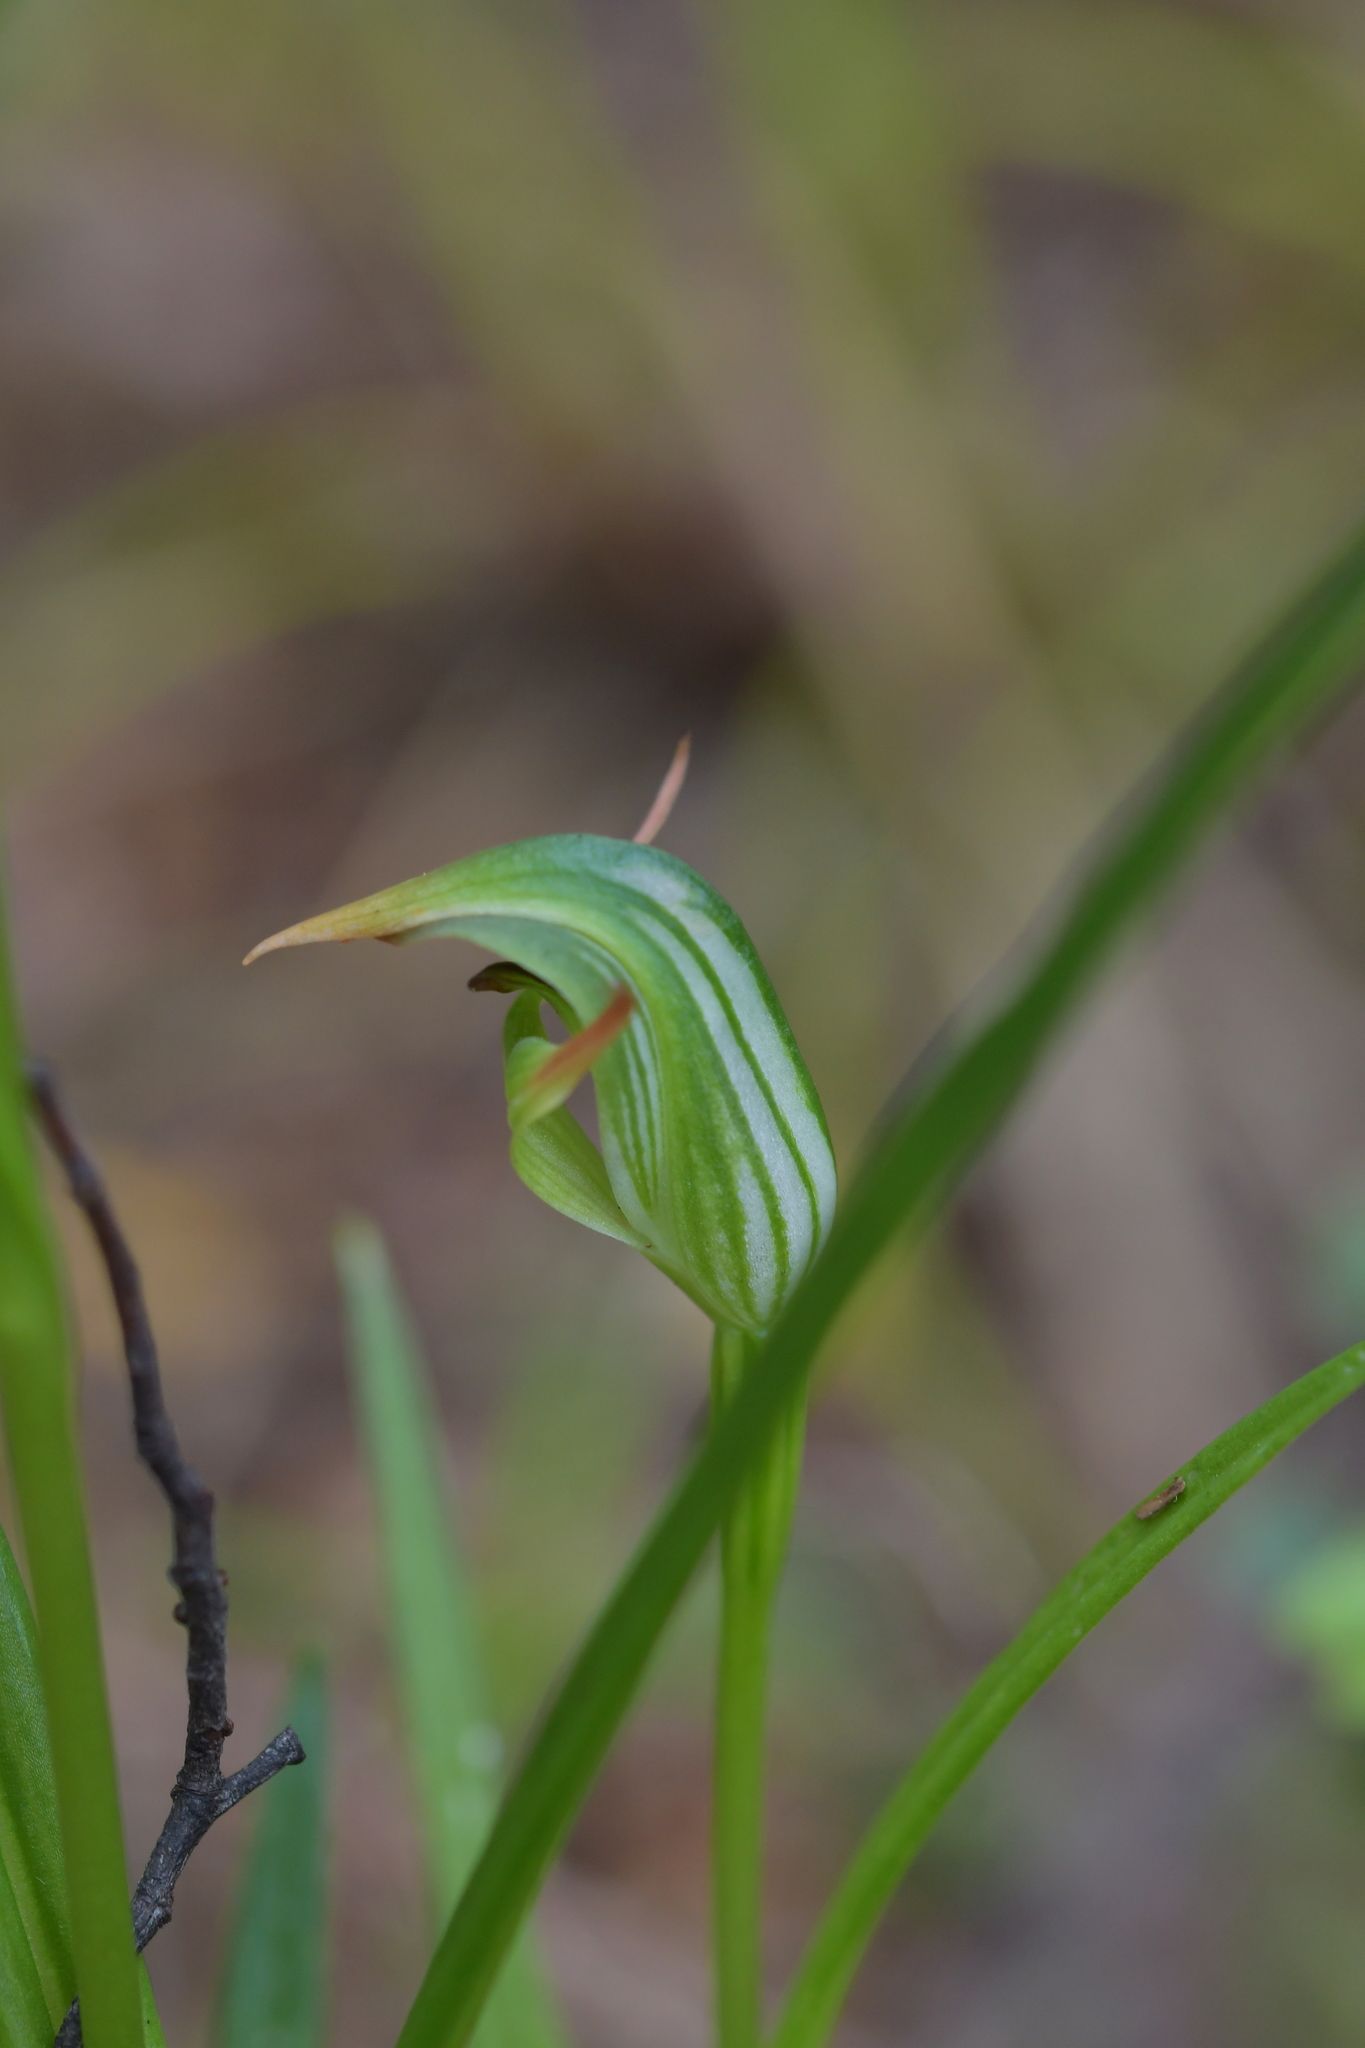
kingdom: Plantae
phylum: Tracheophyta
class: Liliopsida
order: Asparagales
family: Orchidaceae
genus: Pterostylis
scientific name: Pterostylis montana
